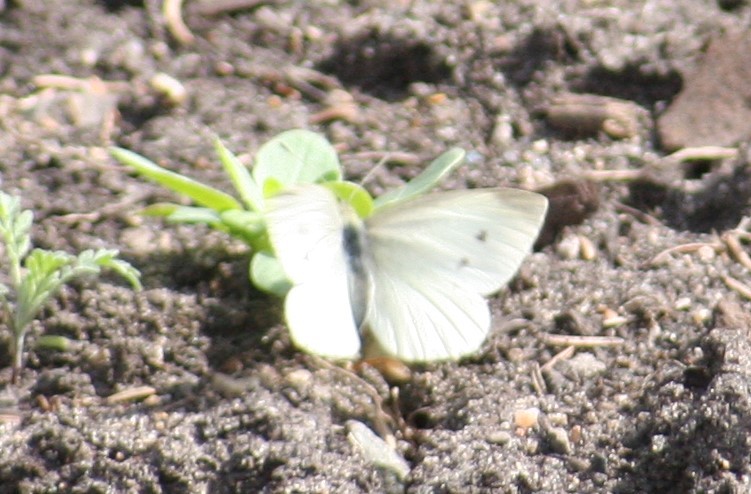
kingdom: Animalia
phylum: Arthropoda
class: Insecta
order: Lepidoptera
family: Pieridae
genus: Pieris
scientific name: Pieris rapae
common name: Small white
